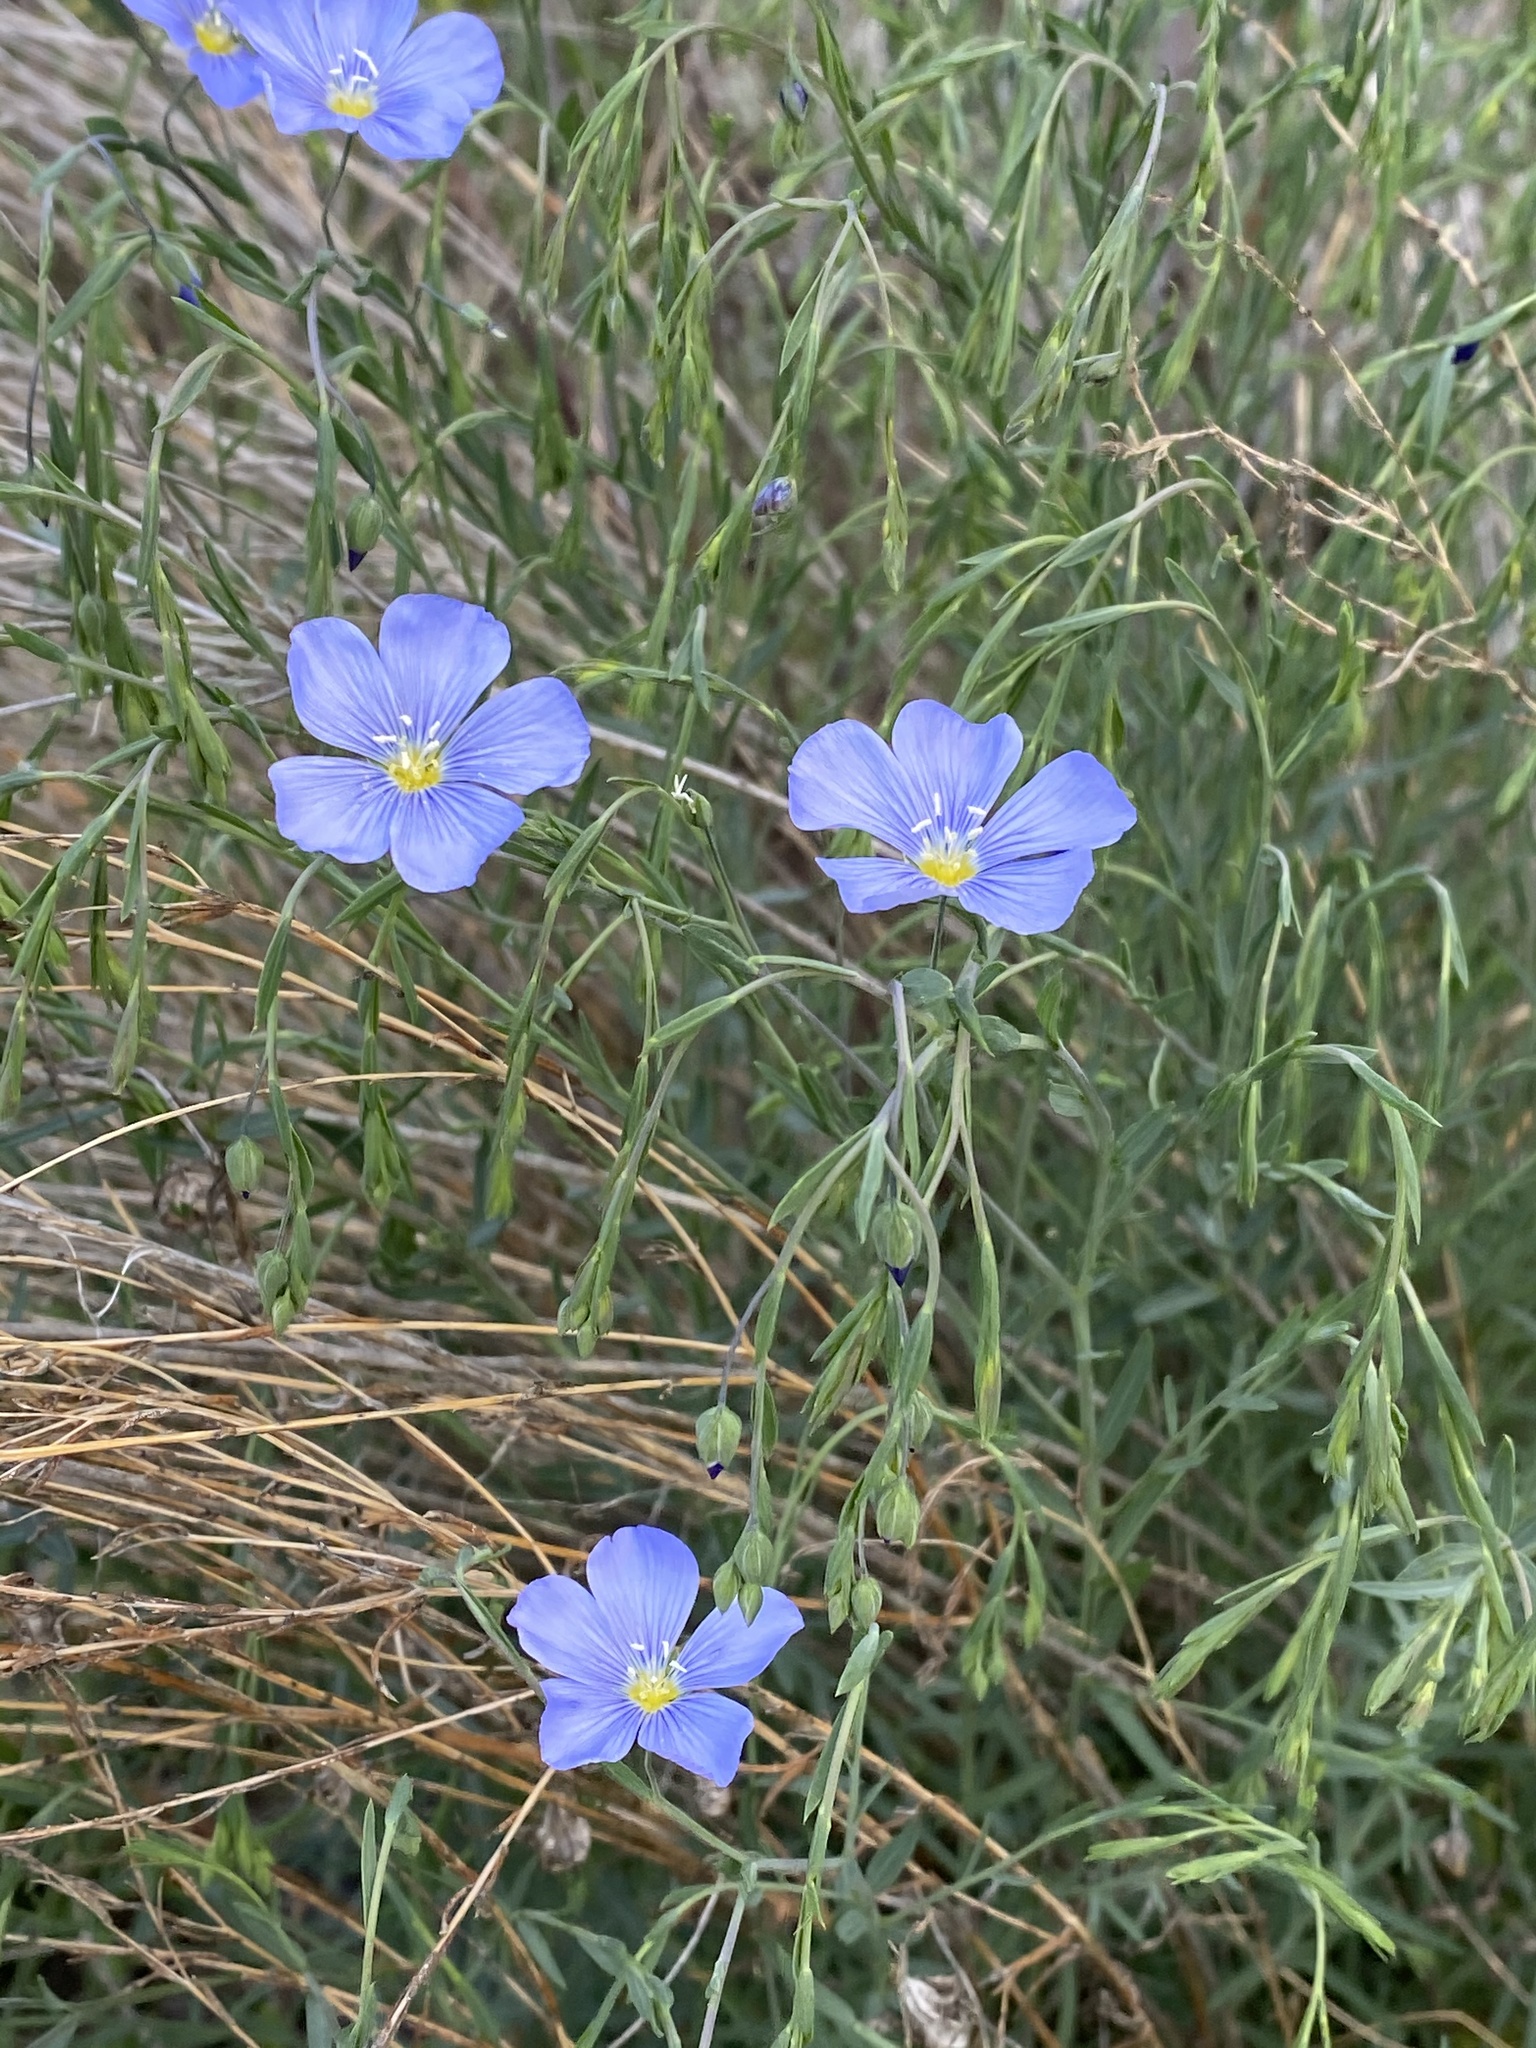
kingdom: Plantae
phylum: Tracheophyta
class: Magnoliopsida
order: Malpighiales
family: Linaceae
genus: Linum
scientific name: Linum lewisii
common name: Prairie flax
